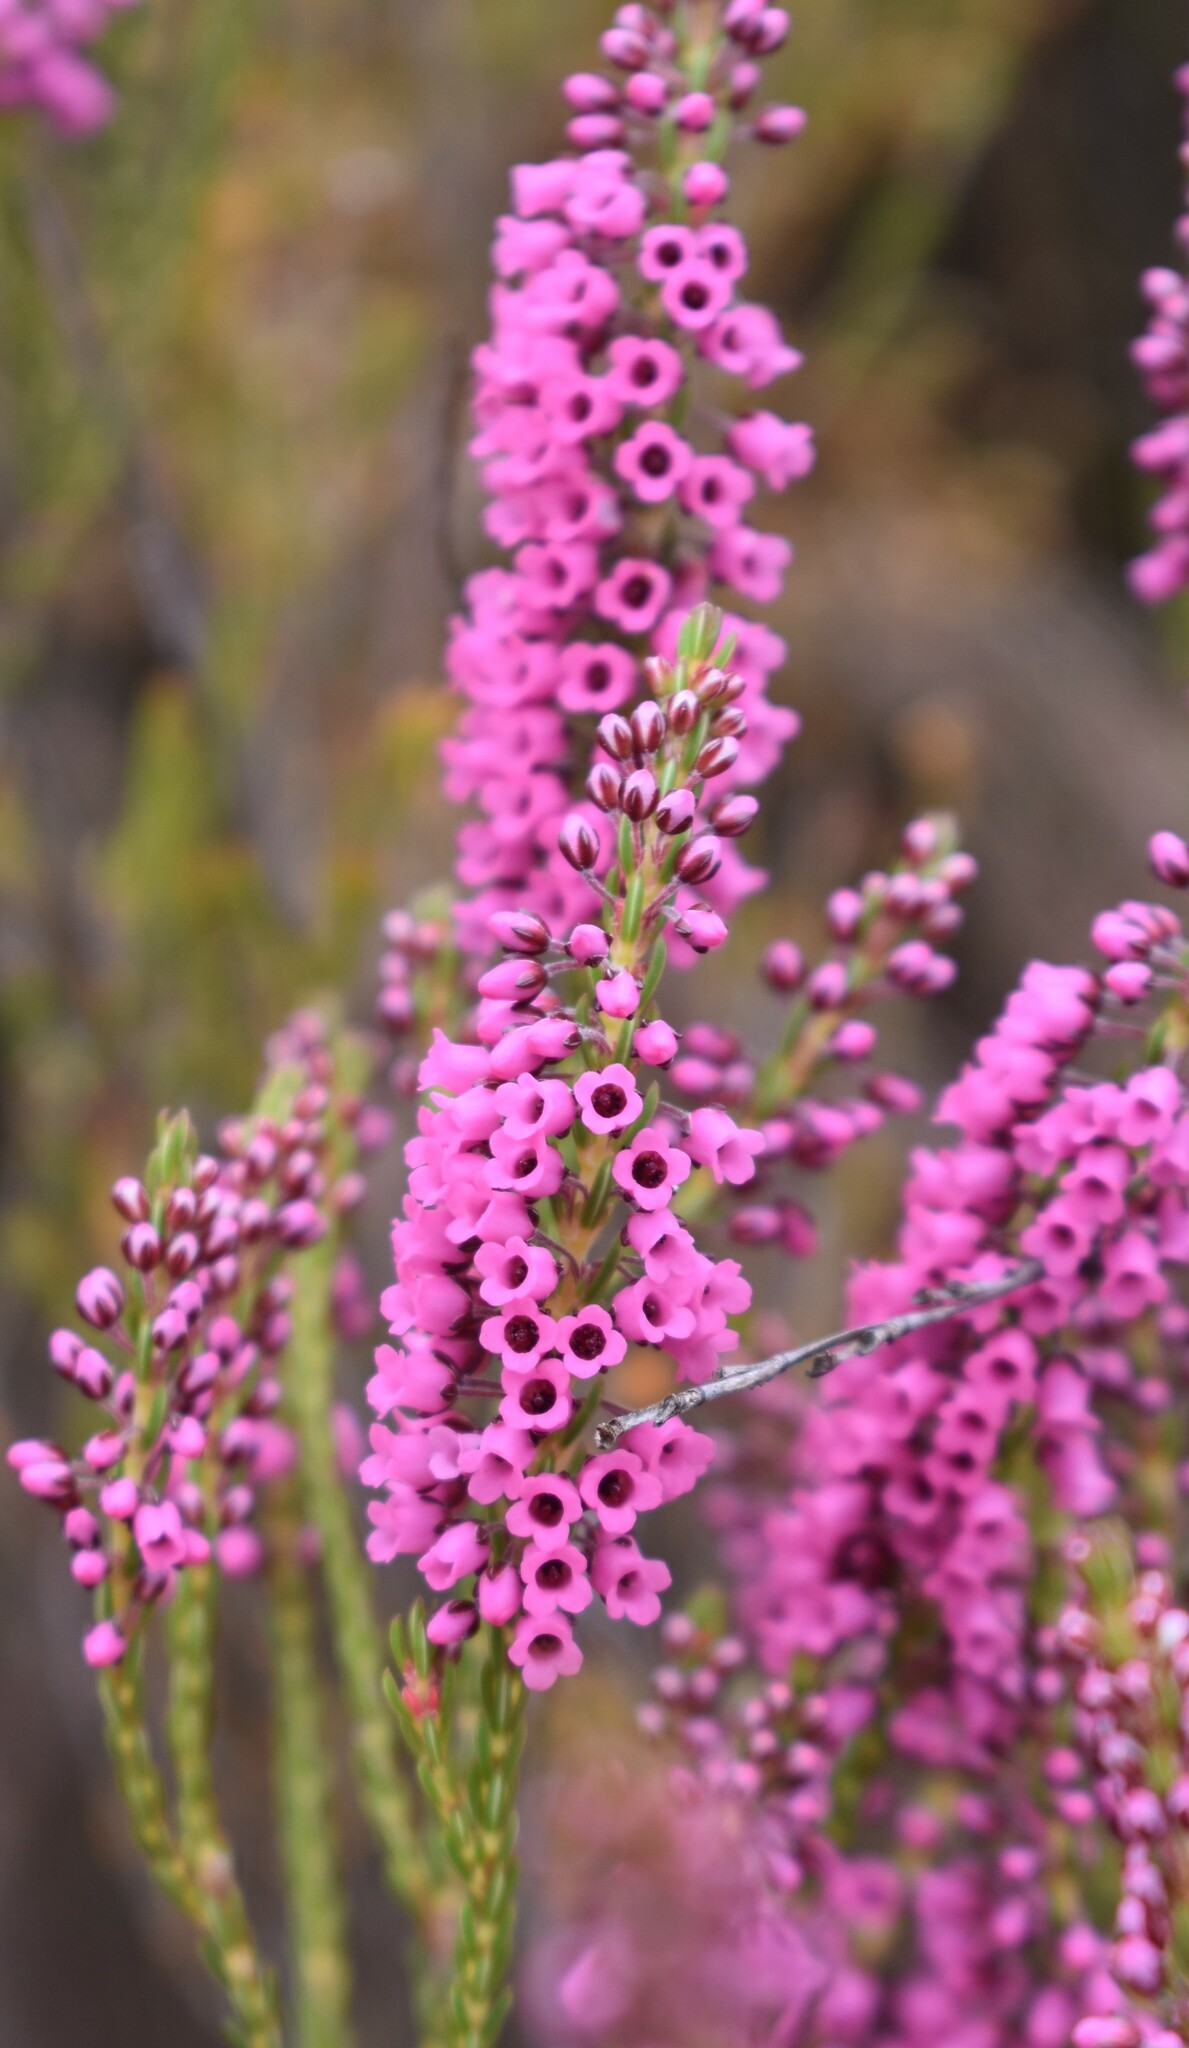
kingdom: Plantae
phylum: Tracheophyta
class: Magnoliopsida
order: Ericales
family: Ericaceae
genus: Erica
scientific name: Erica pulchella
